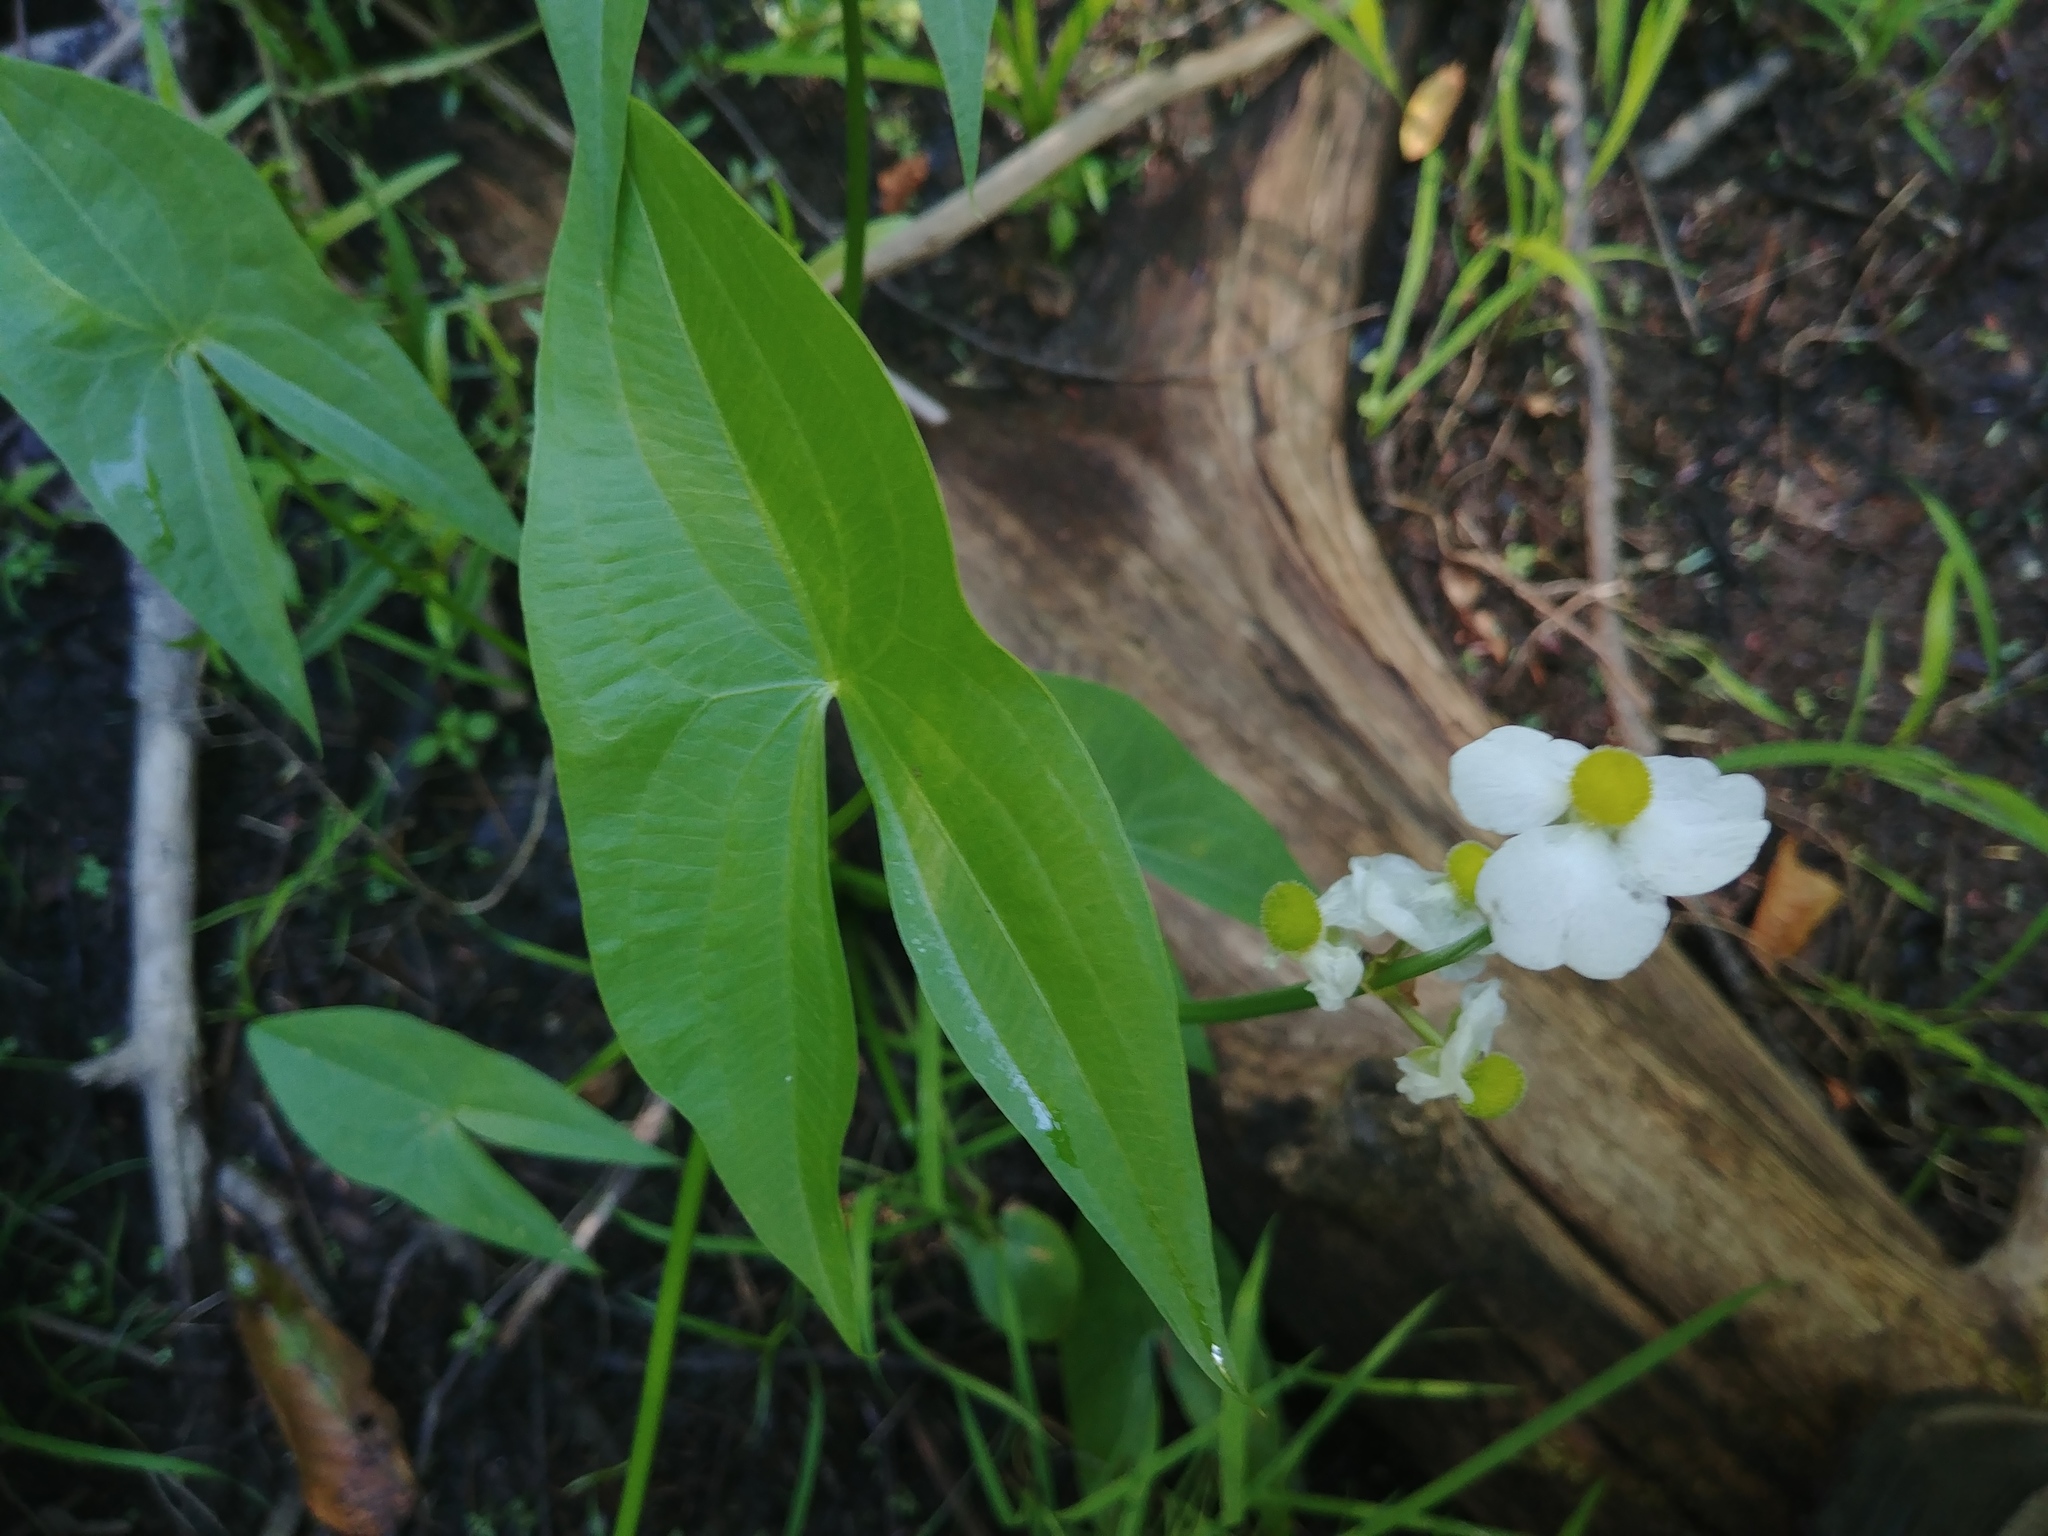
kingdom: Plantae
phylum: Tracheophyta
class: Liliopsida
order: Alismatales
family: Alismataceae
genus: Sagittaria
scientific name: Sagittaria latifolia
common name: Duck-potato
